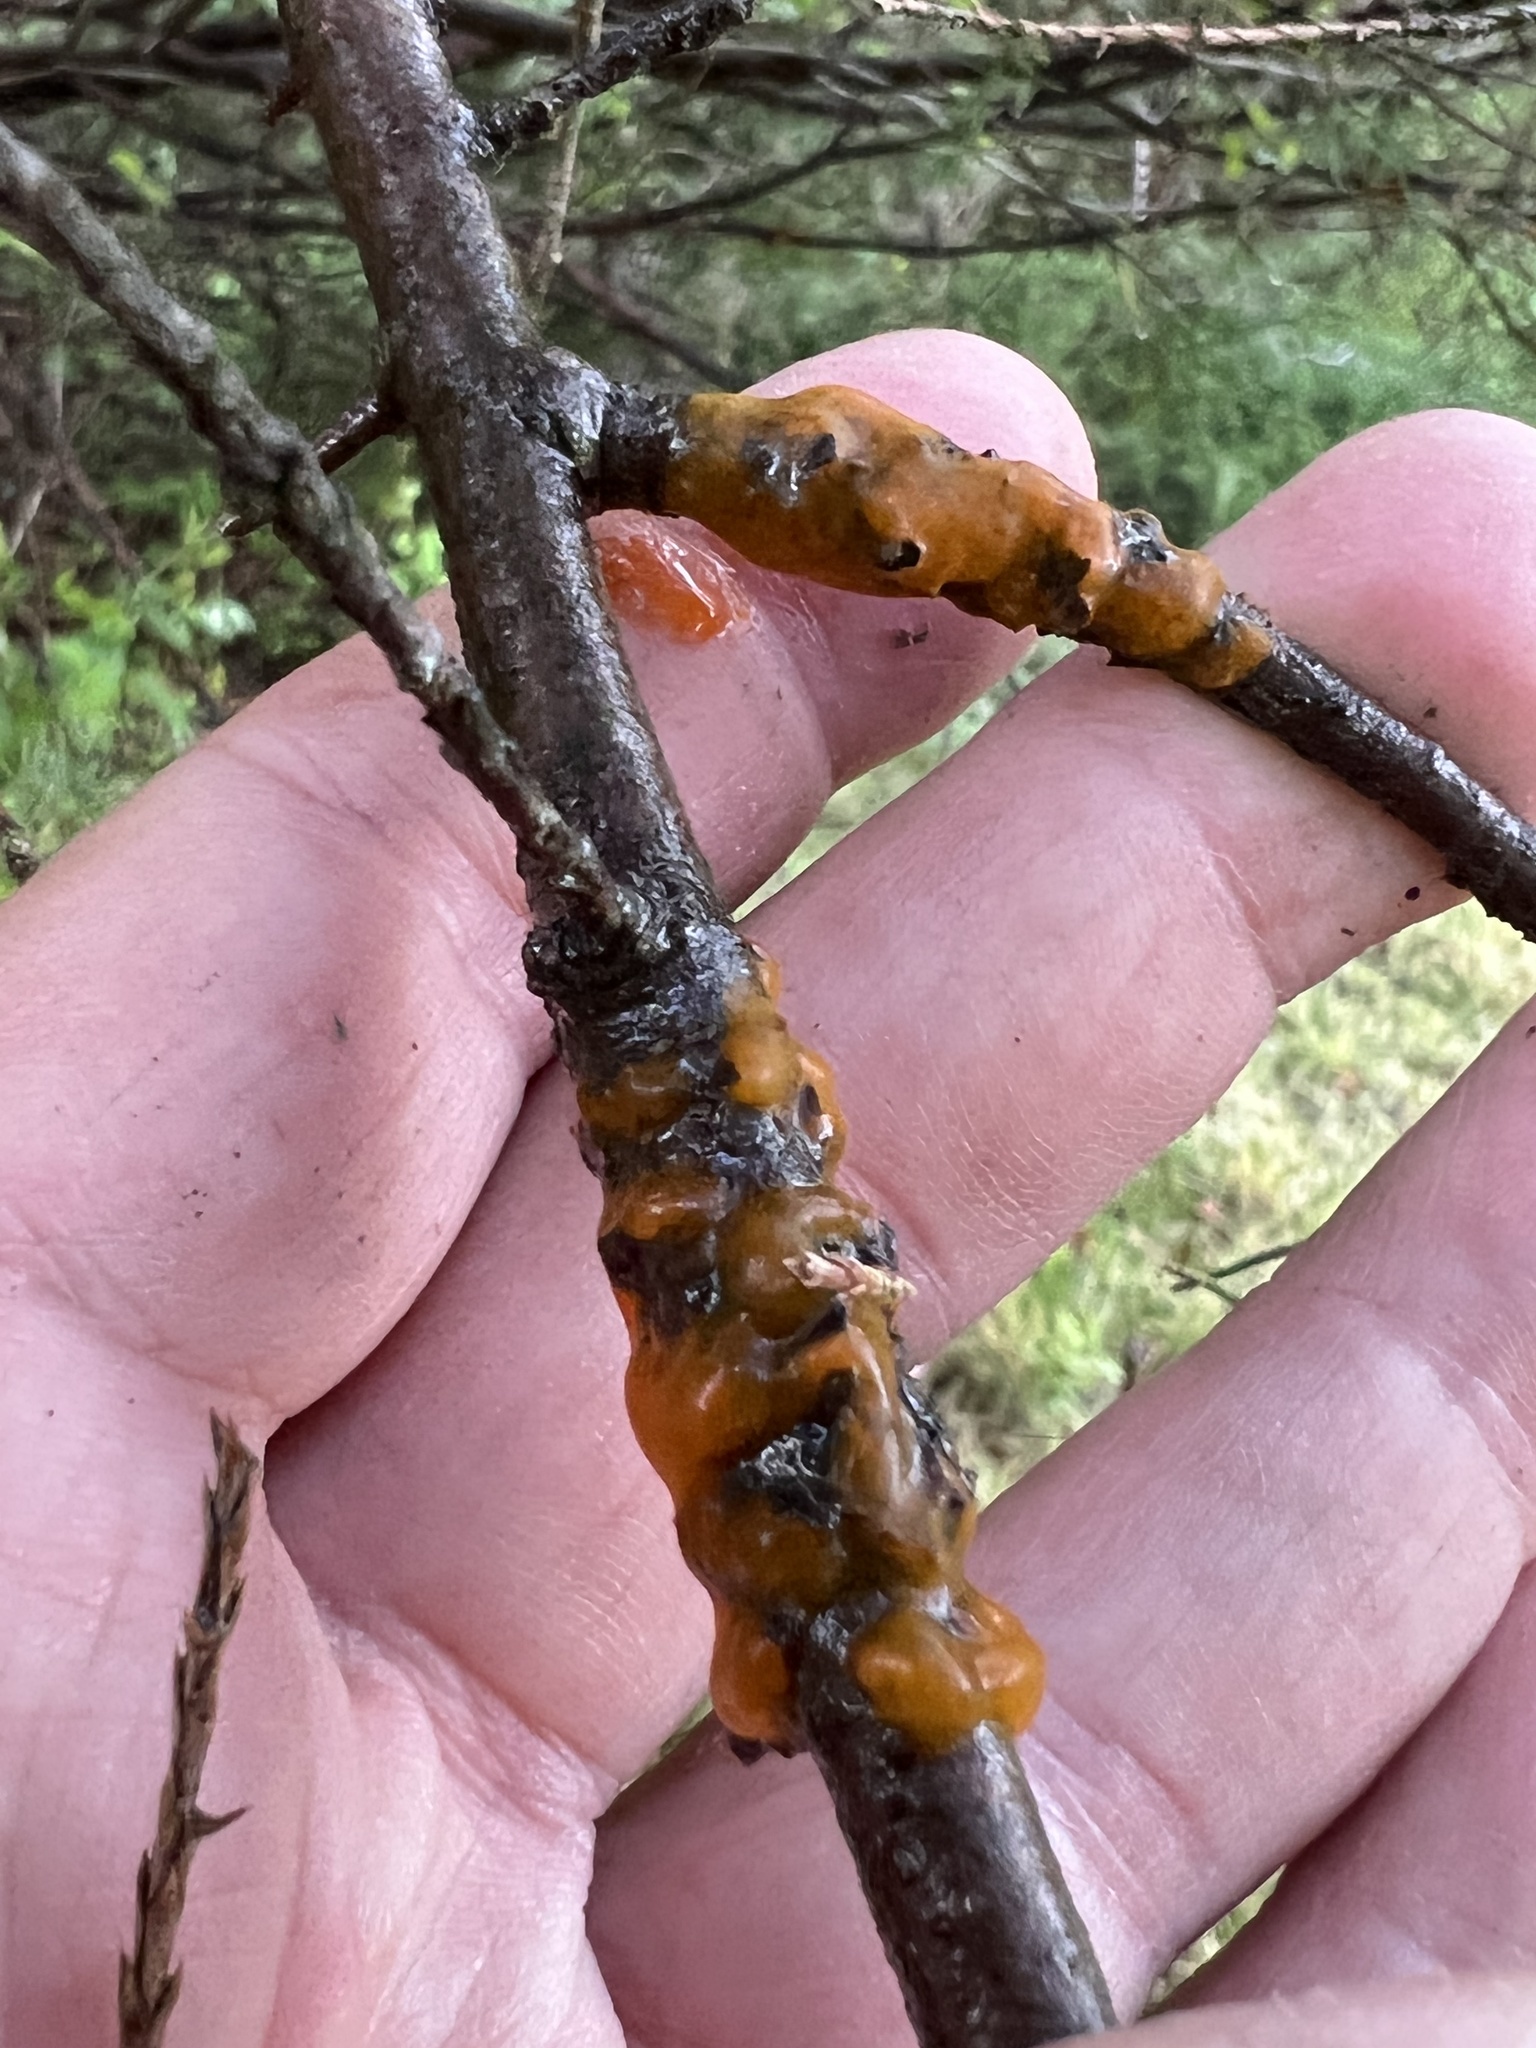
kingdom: Fungi
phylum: Basidiomycota
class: Pucciniomycetes
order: Pucciniales
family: Gymnosporangiaceae
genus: Gymnosporangium
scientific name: Gymnosporangium clavipes
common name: Quince rust
